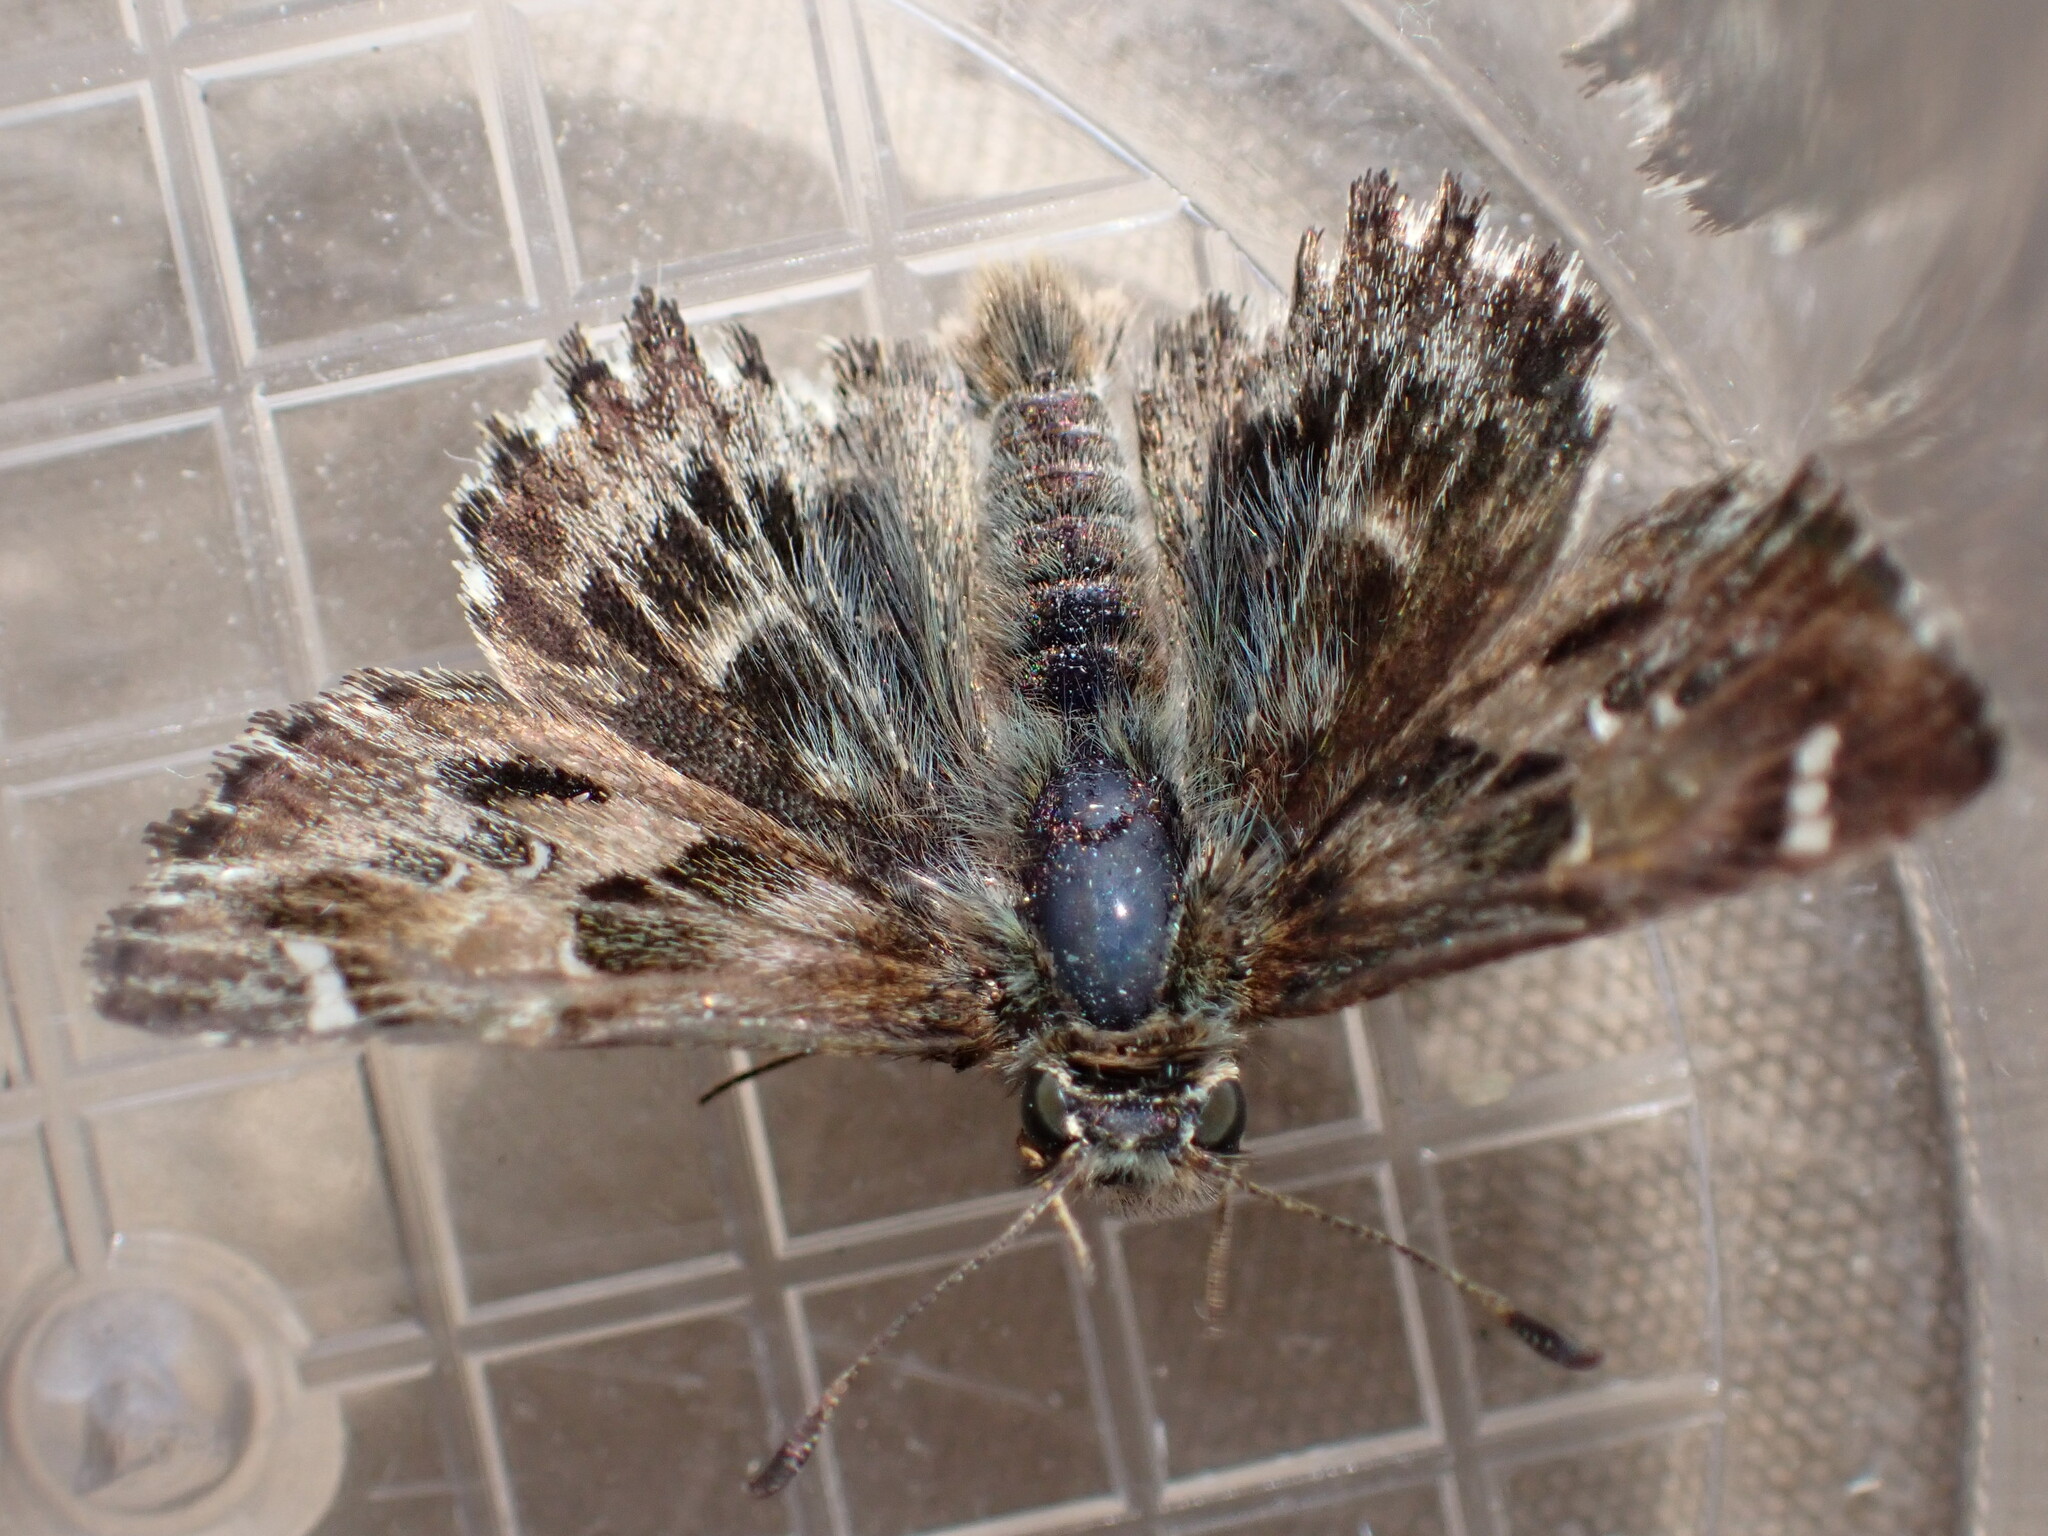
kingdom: Animalia
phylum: Arthropoda
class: Insecta
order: Lepidoptera
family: Hesperiidae
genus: Carcharodus
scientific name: Carcharodus alceae
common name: Mallow skipper
